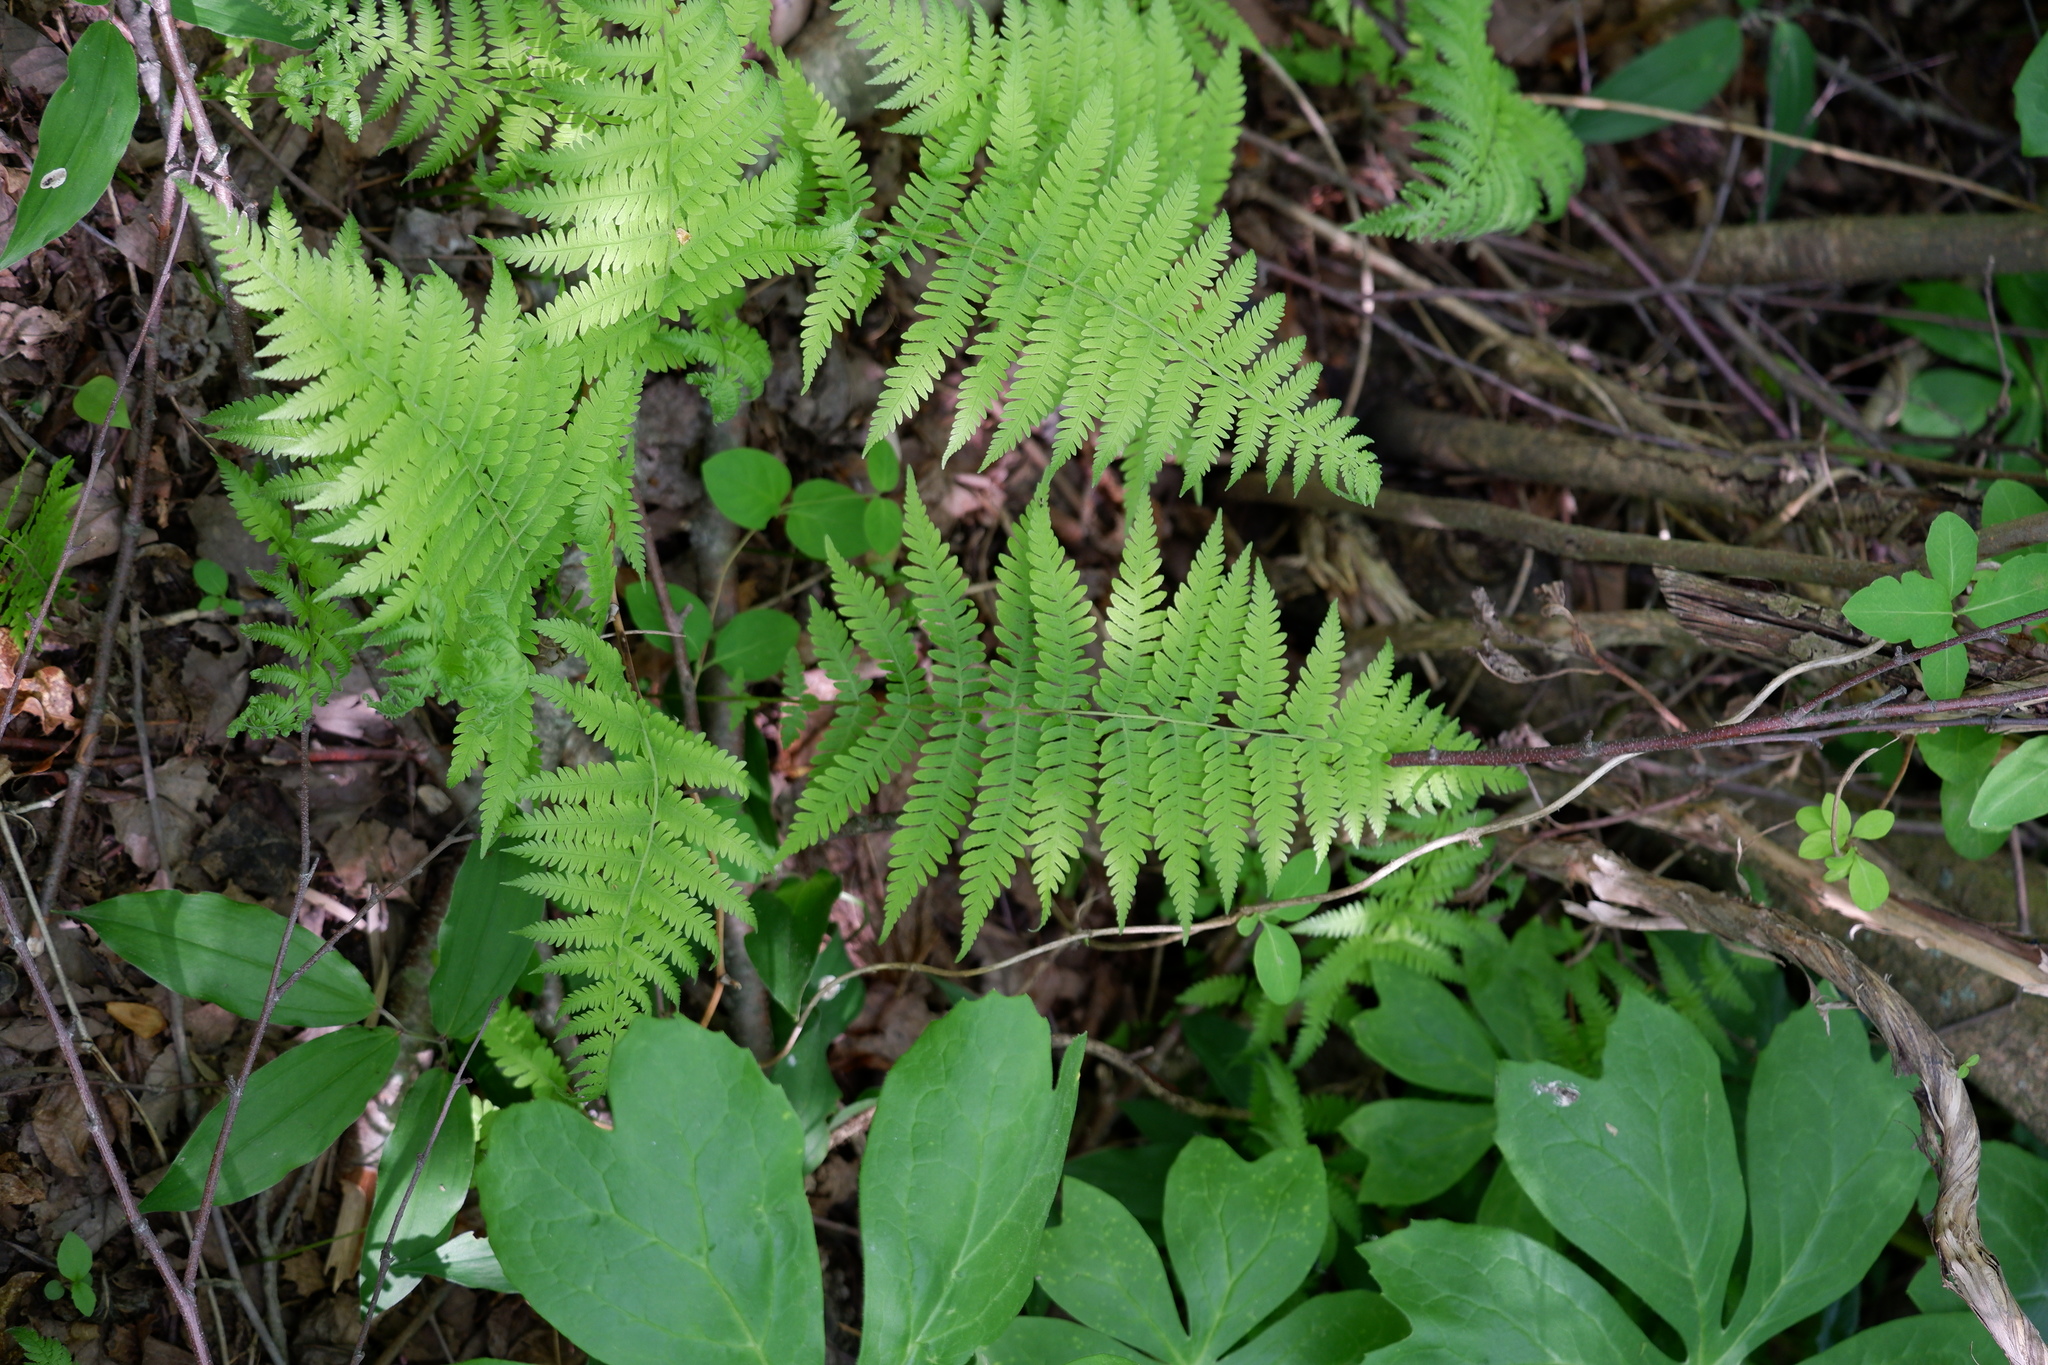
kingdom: Plantae
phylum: Tracheophyta
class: Polypodiopsida
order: Polypodiales
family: Thelypteridaceae
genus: Amauropelta
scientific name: Amauropelta noveboracensis
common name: New york fern
